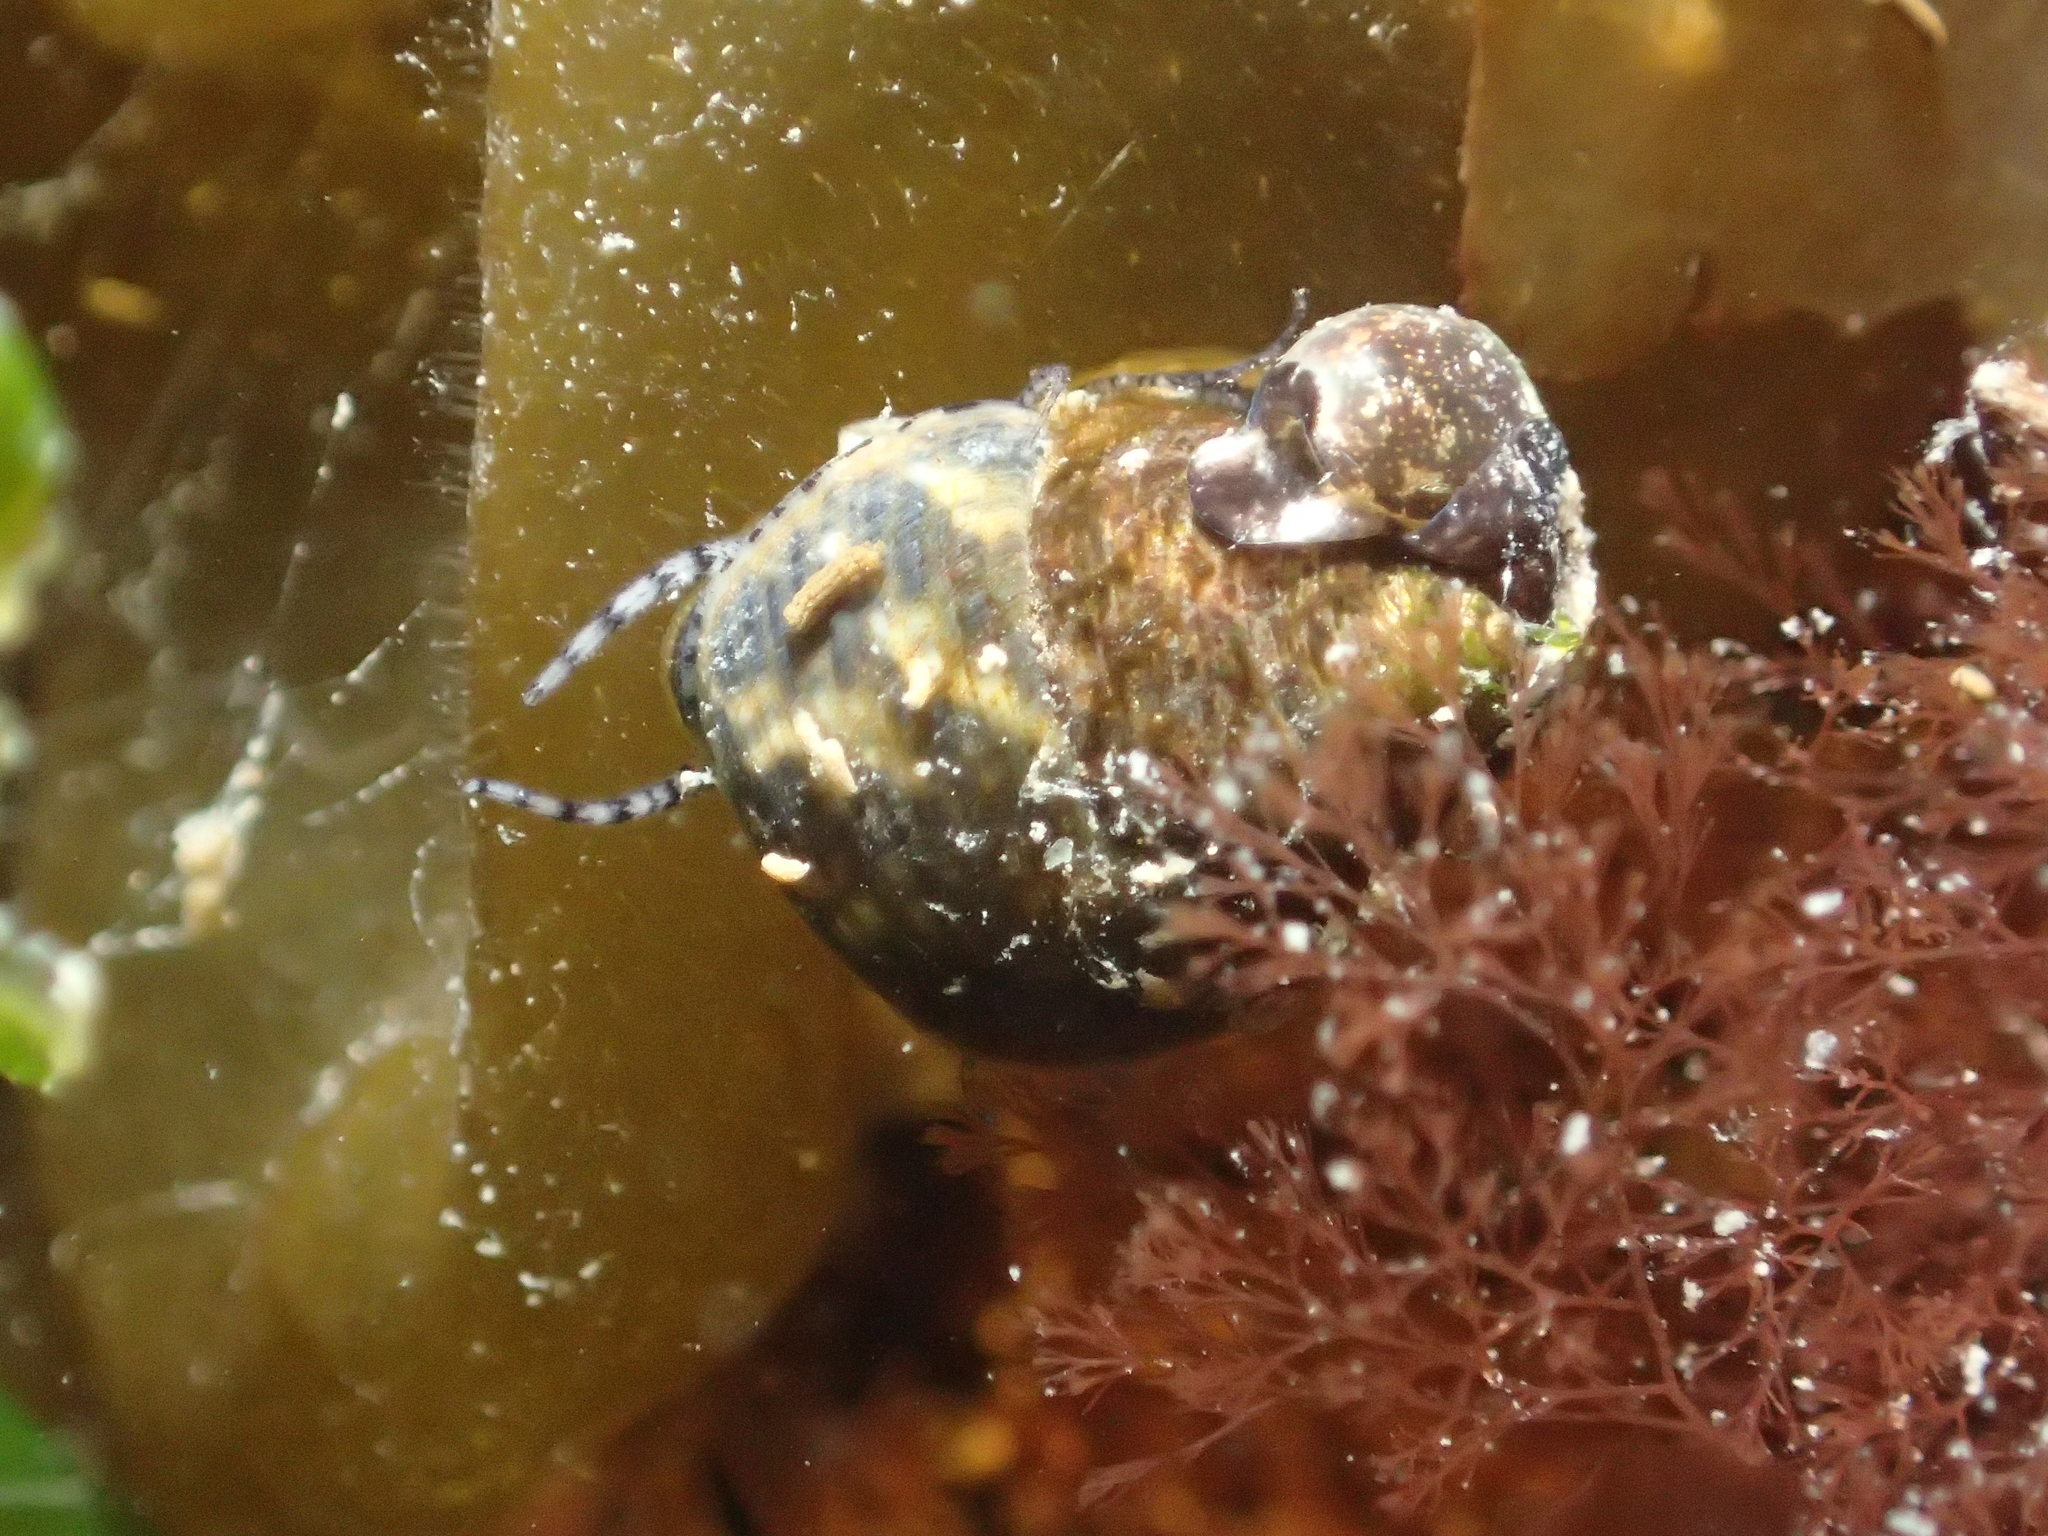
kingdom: Animalia
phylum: Mollusca
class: Gastropoda
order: Trochida
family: Trochidae
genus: Phorcus
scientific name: Phorcus turbinatus
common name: Turbinate monodont
